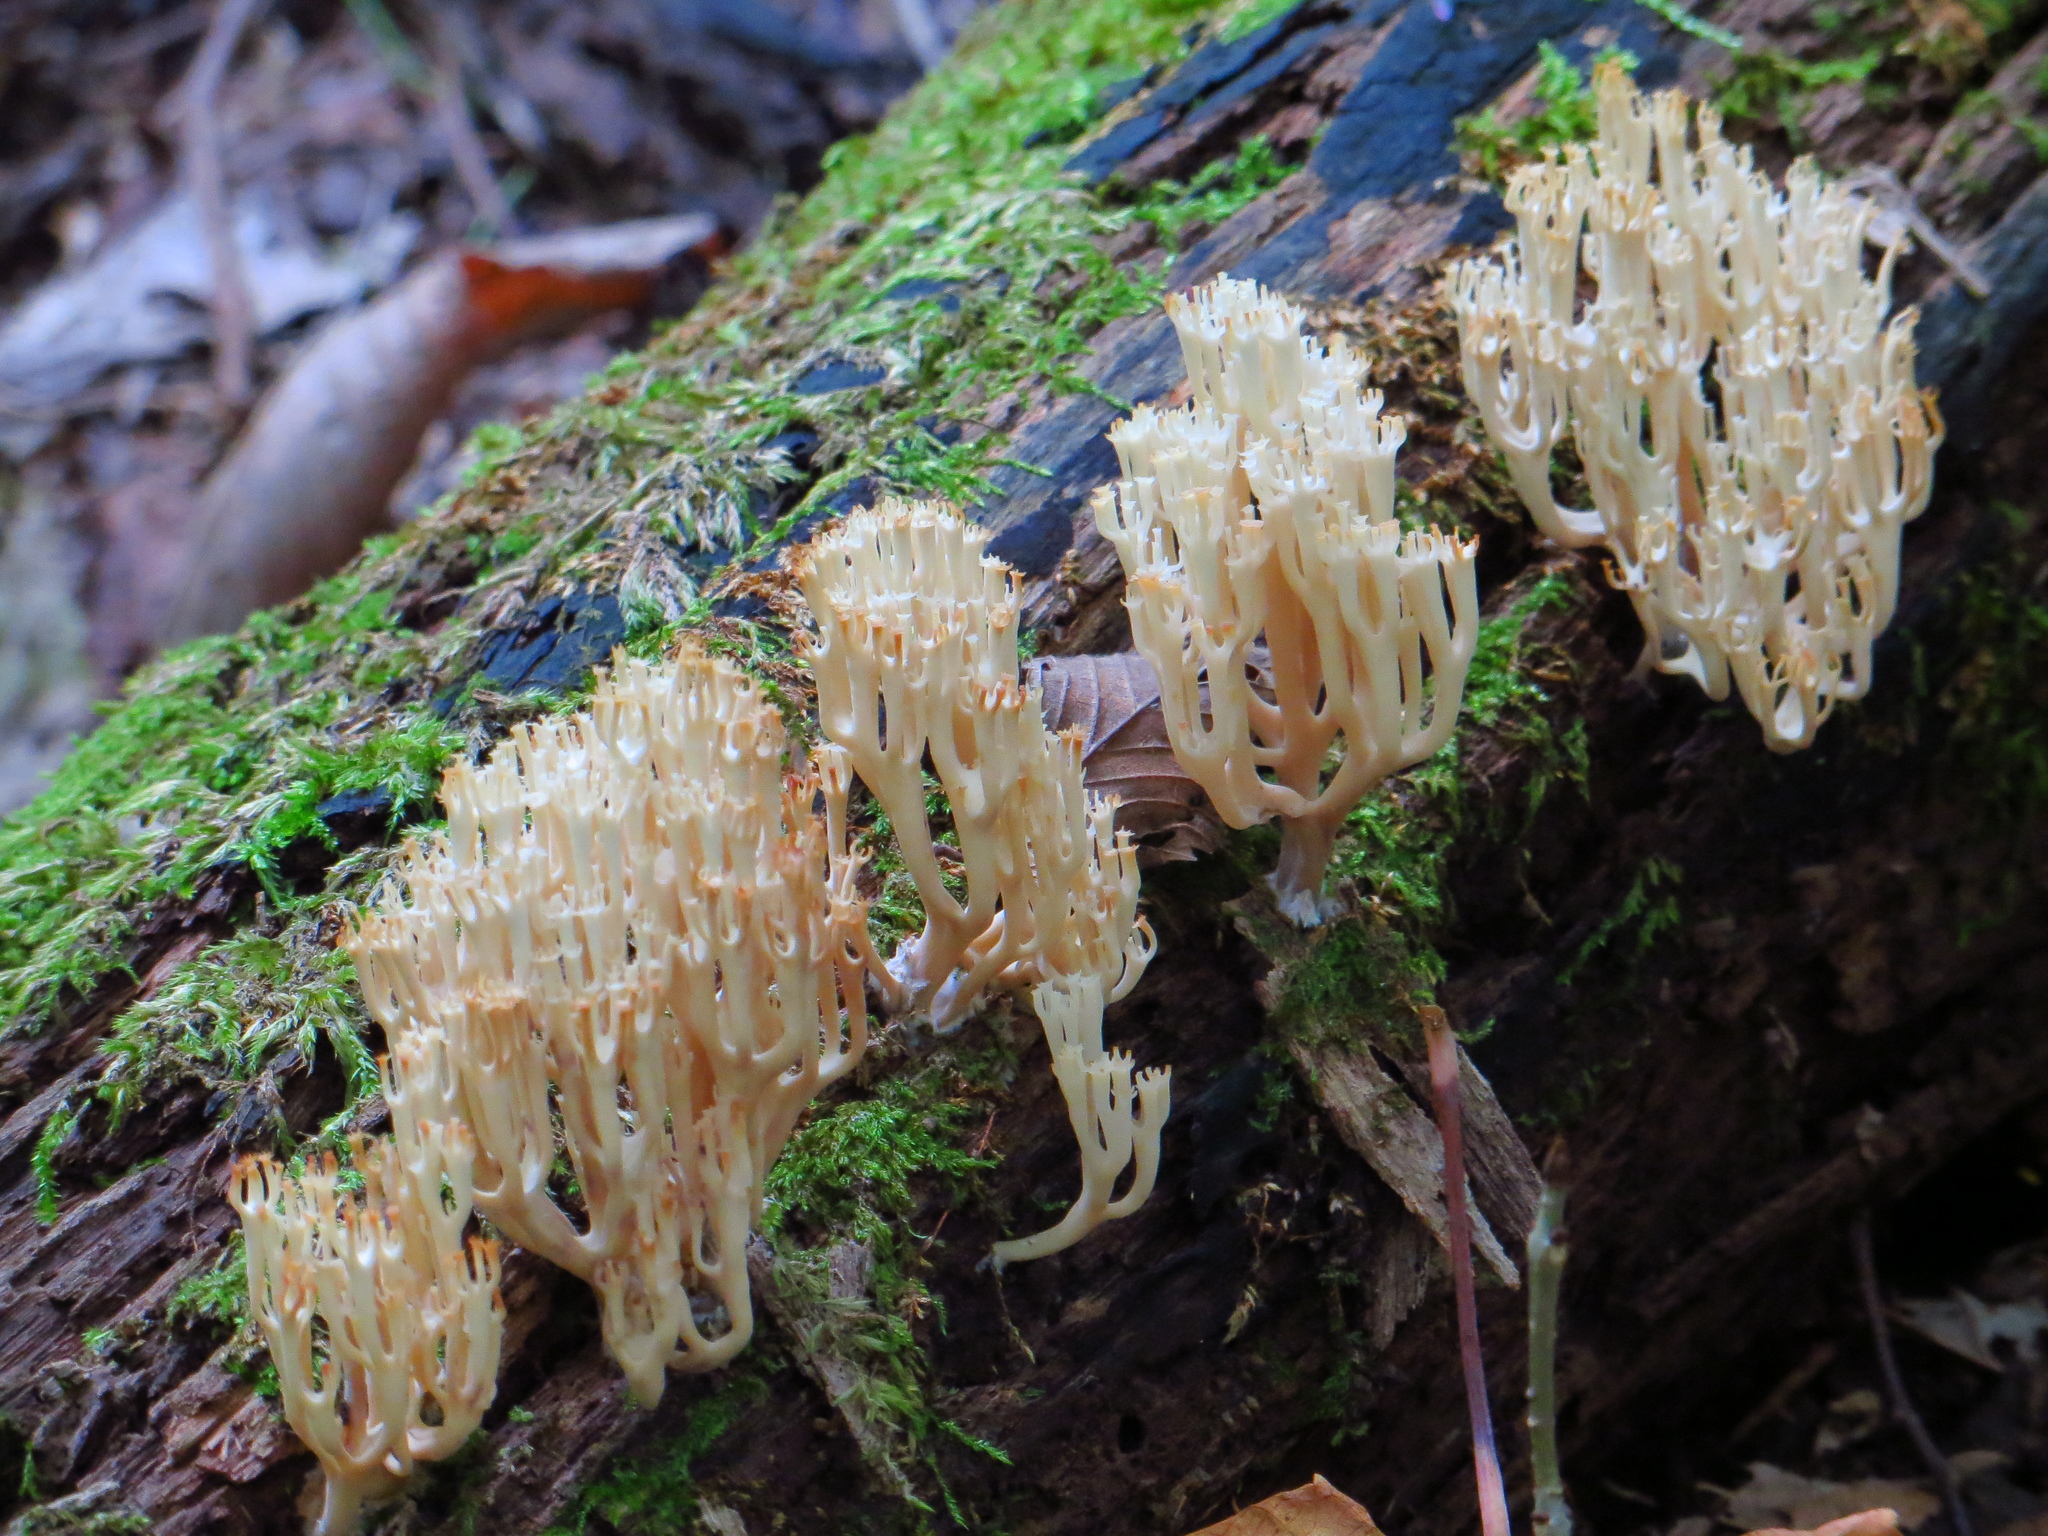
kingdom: Fungi
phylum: Basidiomycota
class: Agaricomycetes
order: Russulales
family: Auriscalpiaceae
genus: Artomyces
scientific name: Artomyces pyxidatus
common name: Crown-tipped coral fungus
